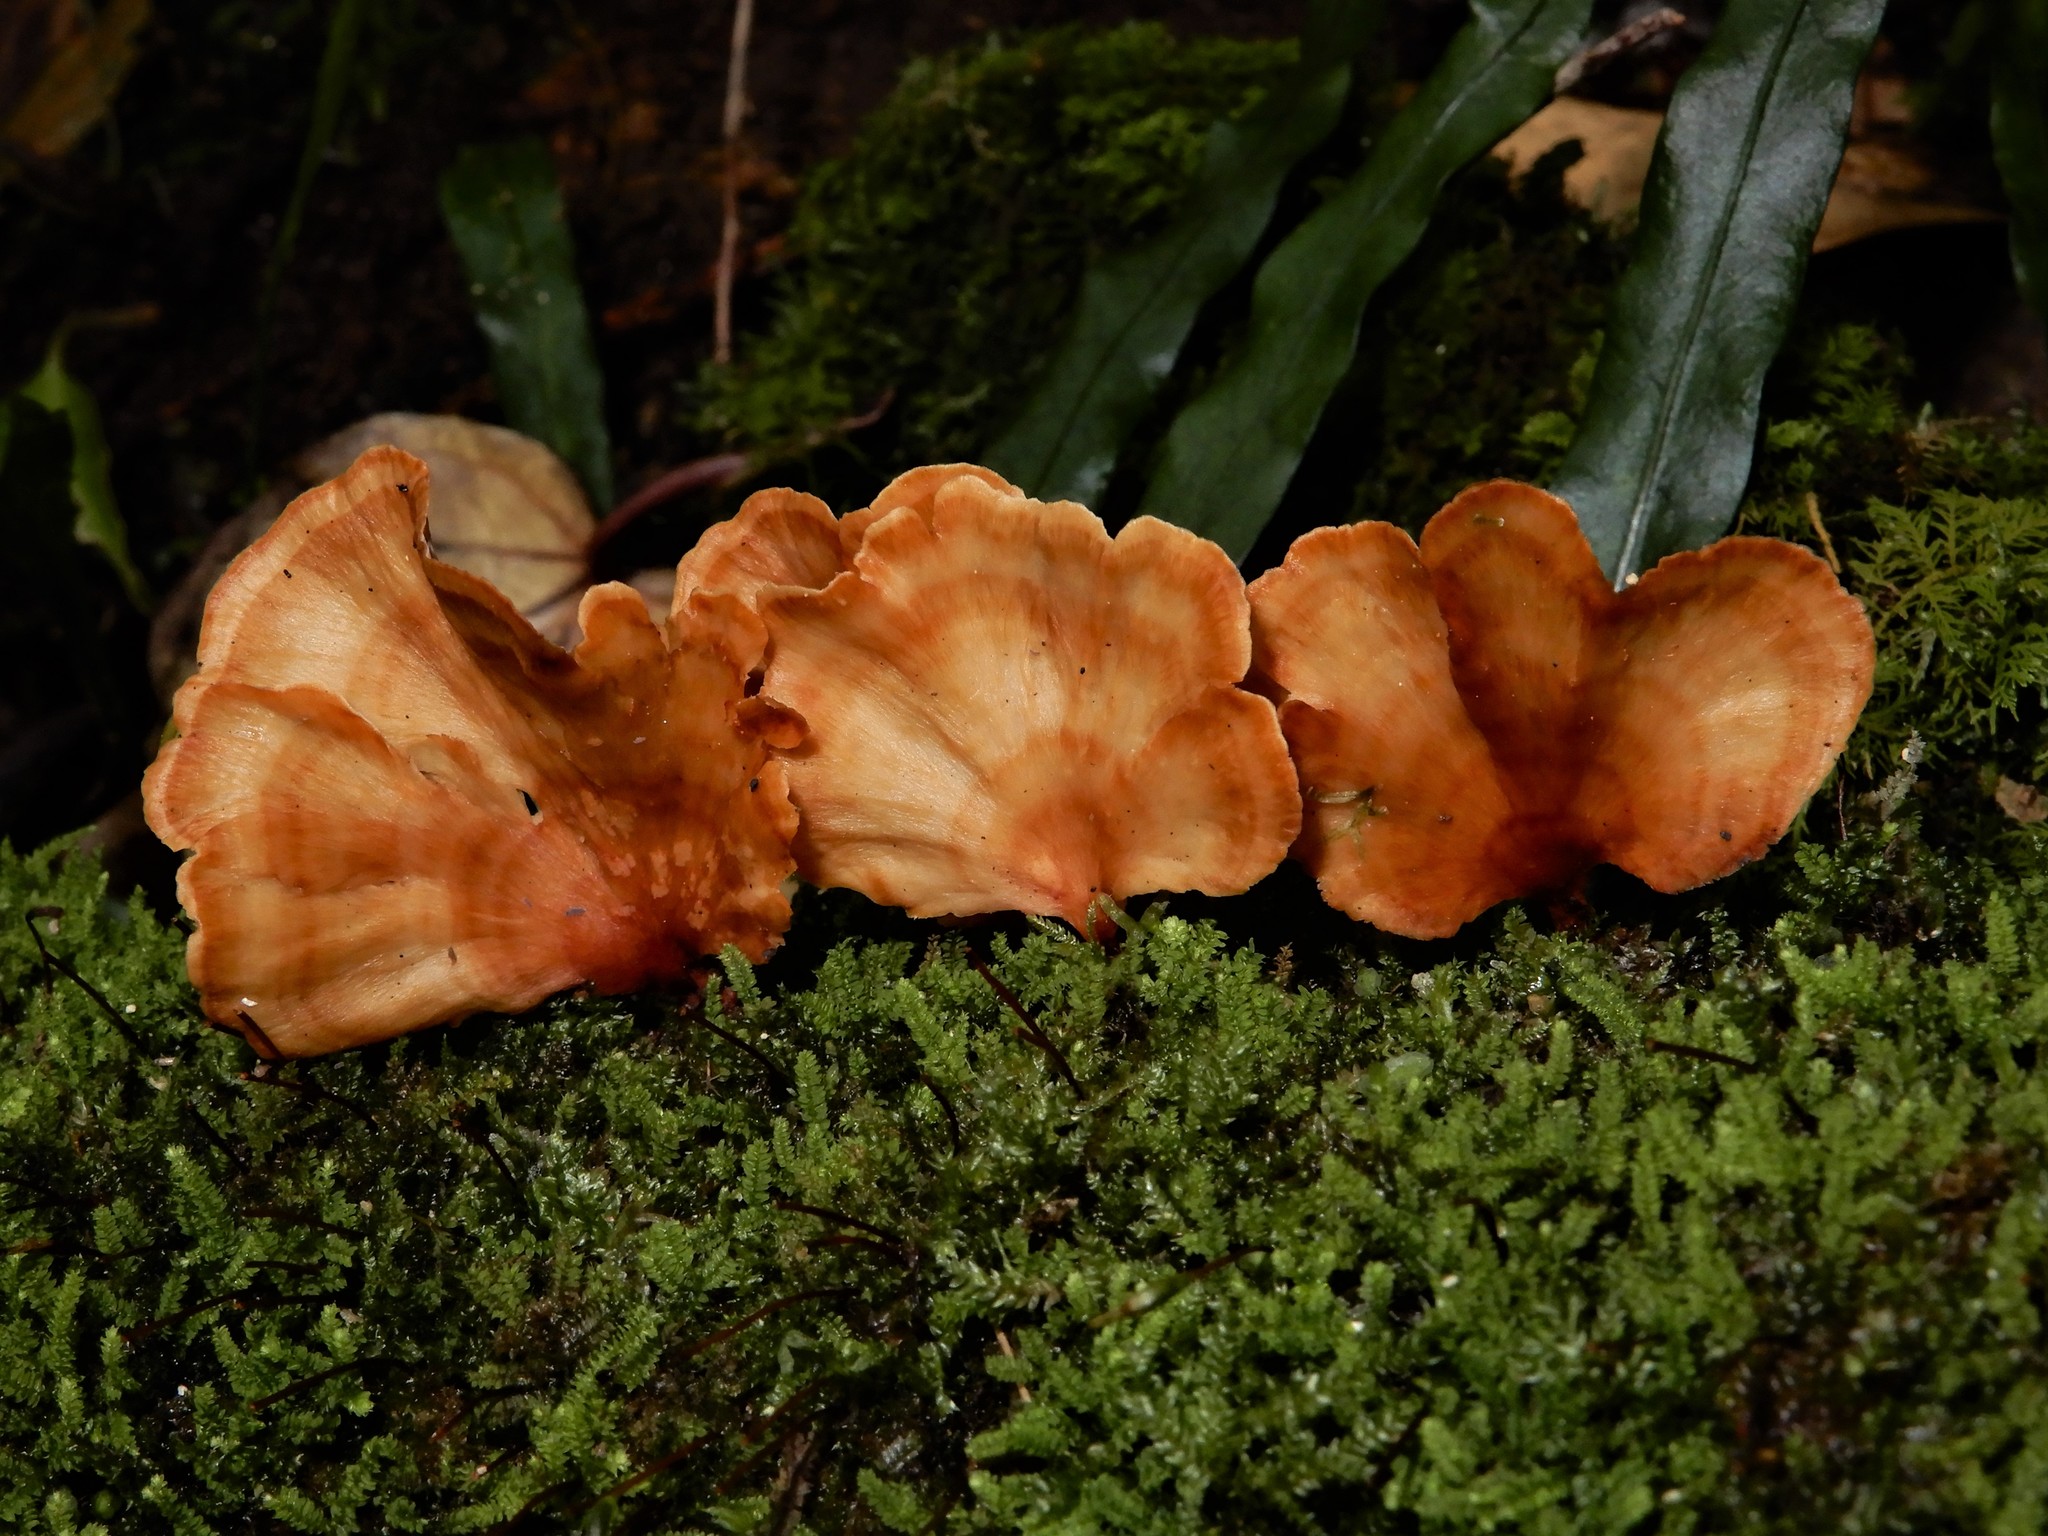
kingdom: Fungi
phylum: Basidiomycota
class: Agaricomycetes
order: Polyporales
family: Podoscyphaceae
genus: Podoscypha
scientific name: Podoscypha petalodes
